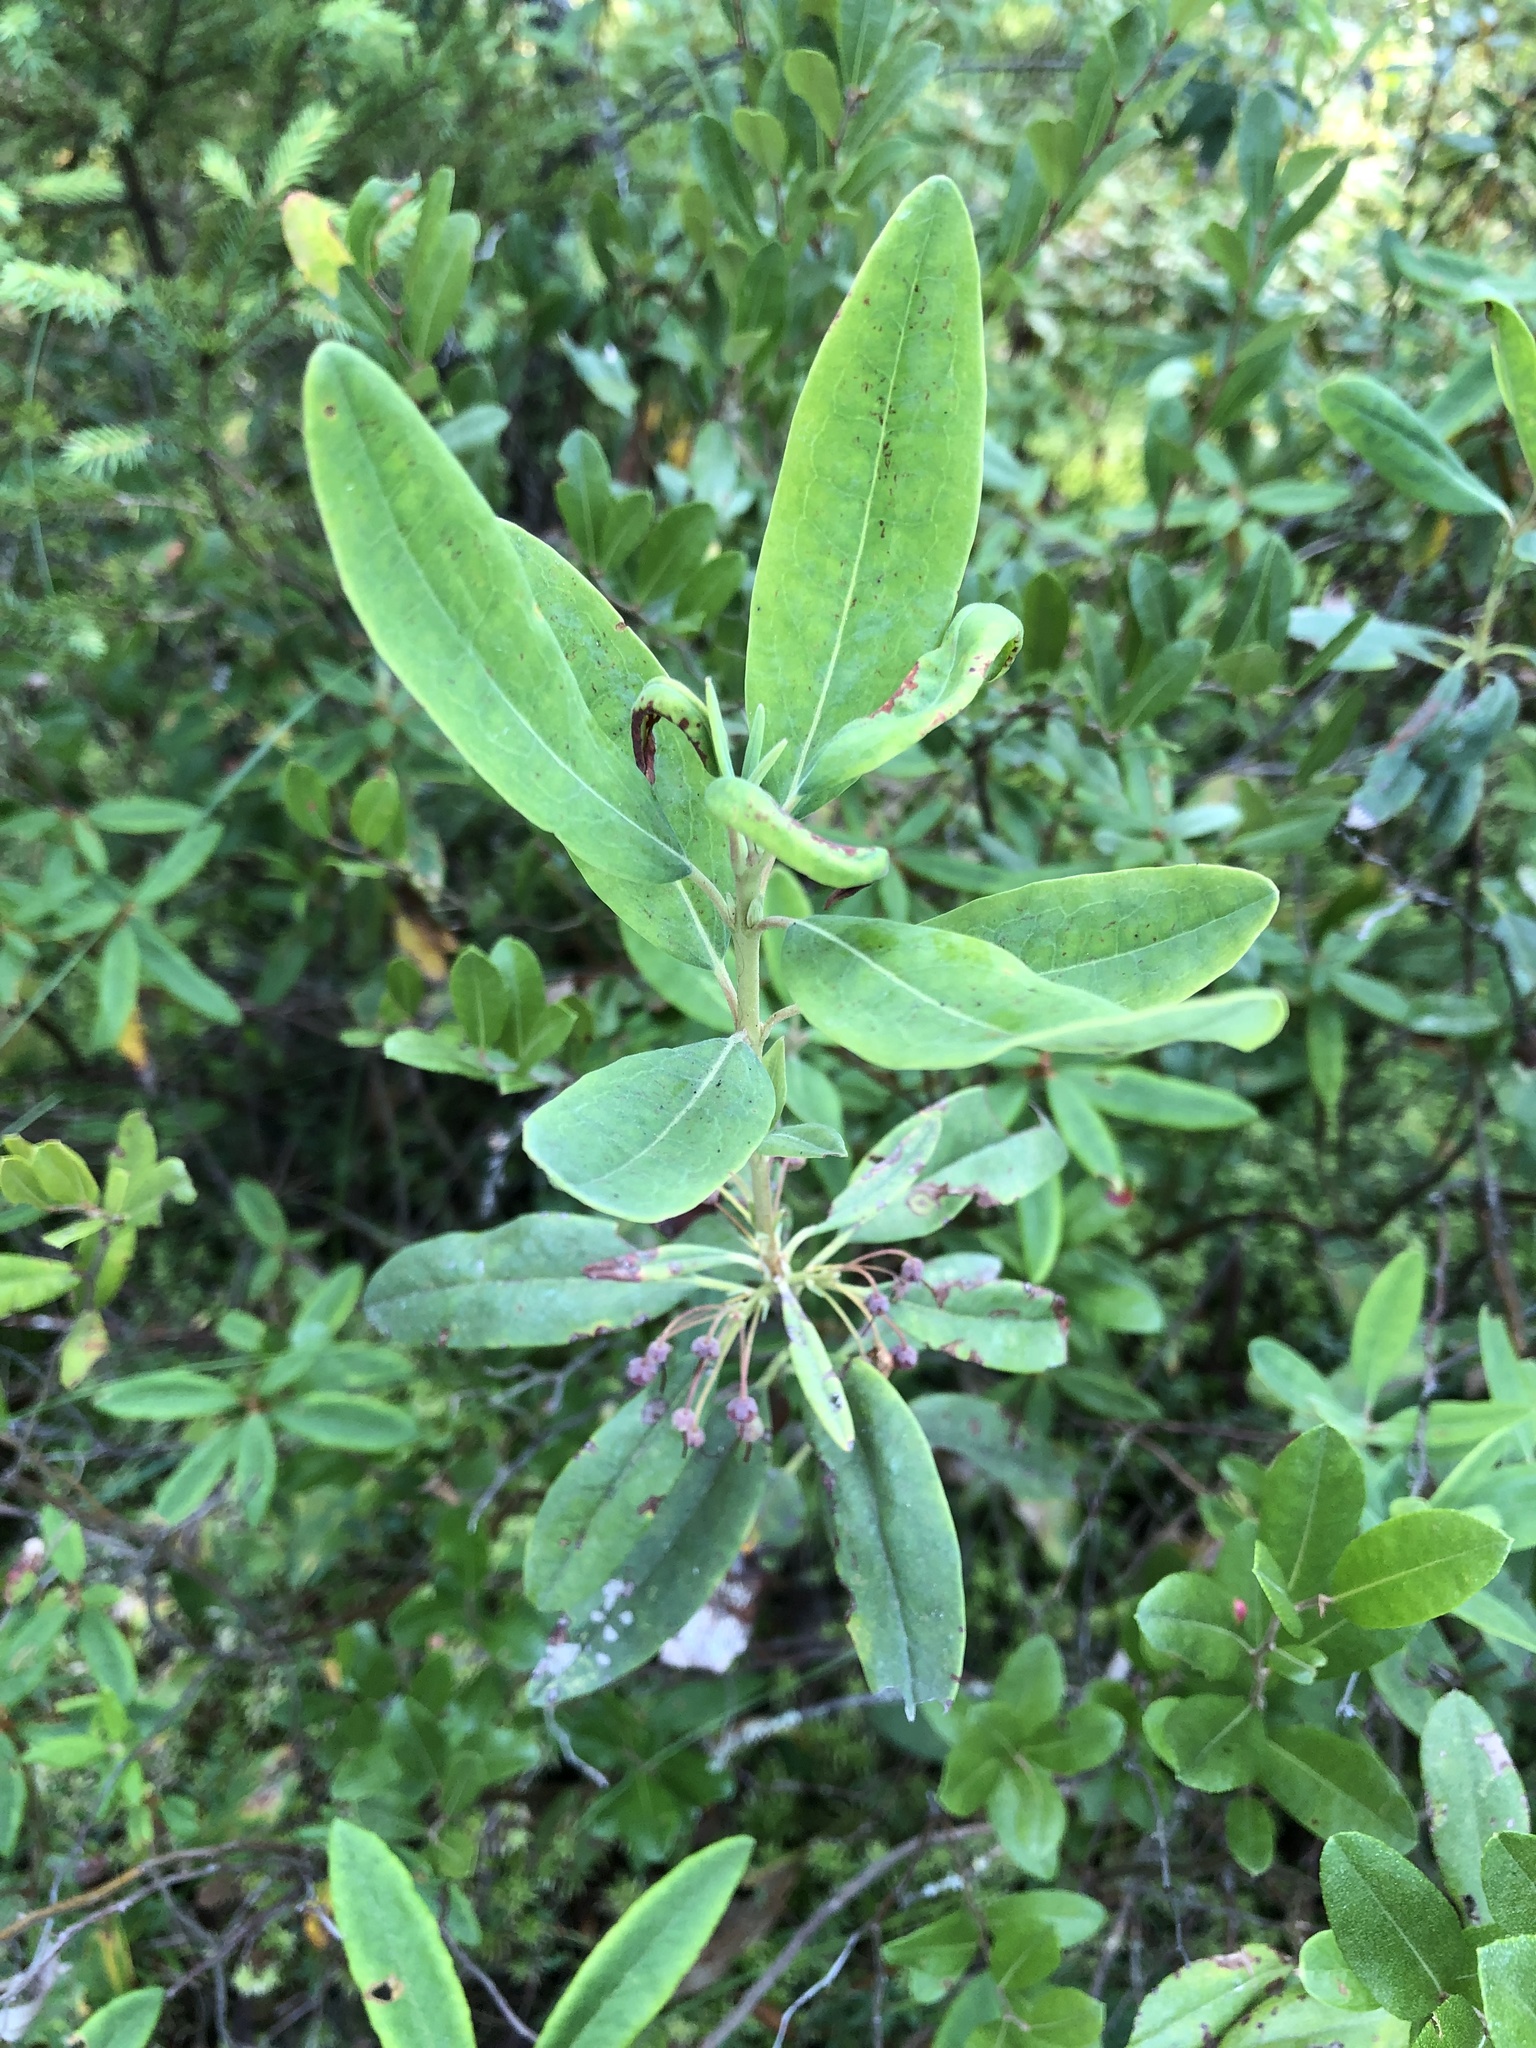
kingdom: Plantae
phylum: Tracheophyta
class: Magnoliopsida
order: Ericales
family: Ericaceae
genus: Kalmia
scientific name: Kalmia angustifolia
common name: Sheep-laurel
